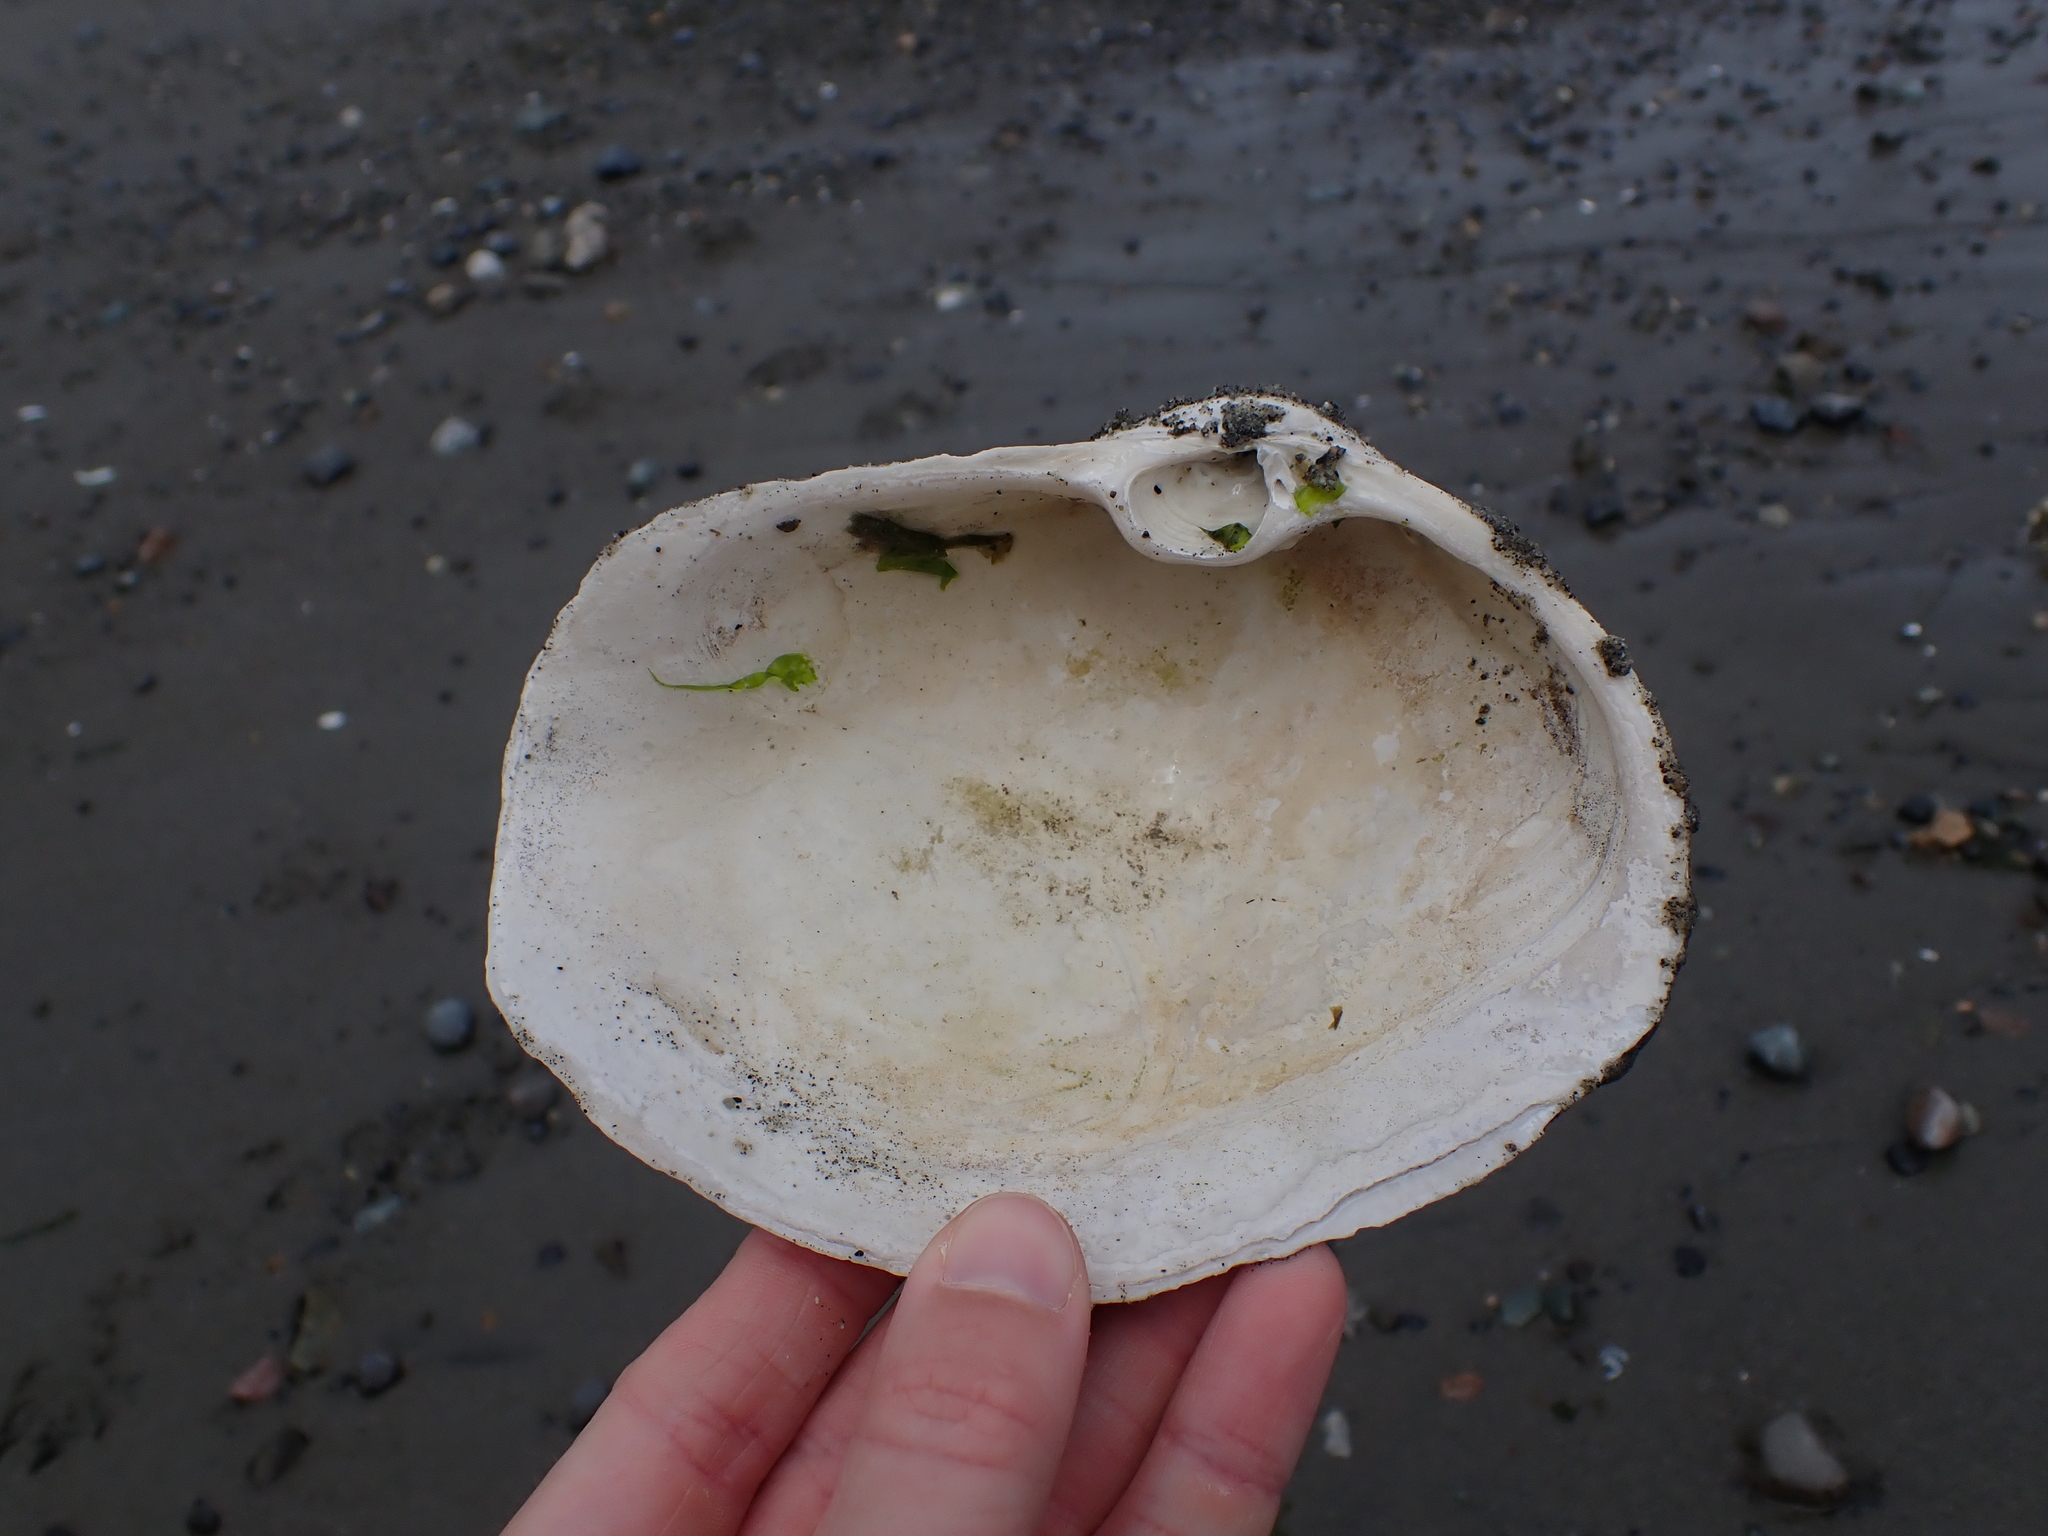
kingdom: Animalia
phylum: Mollusca
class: Bivalvia
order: Venerida
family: Mactridae
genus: Tresus
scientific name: Tresus capax
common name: Fat gaper
